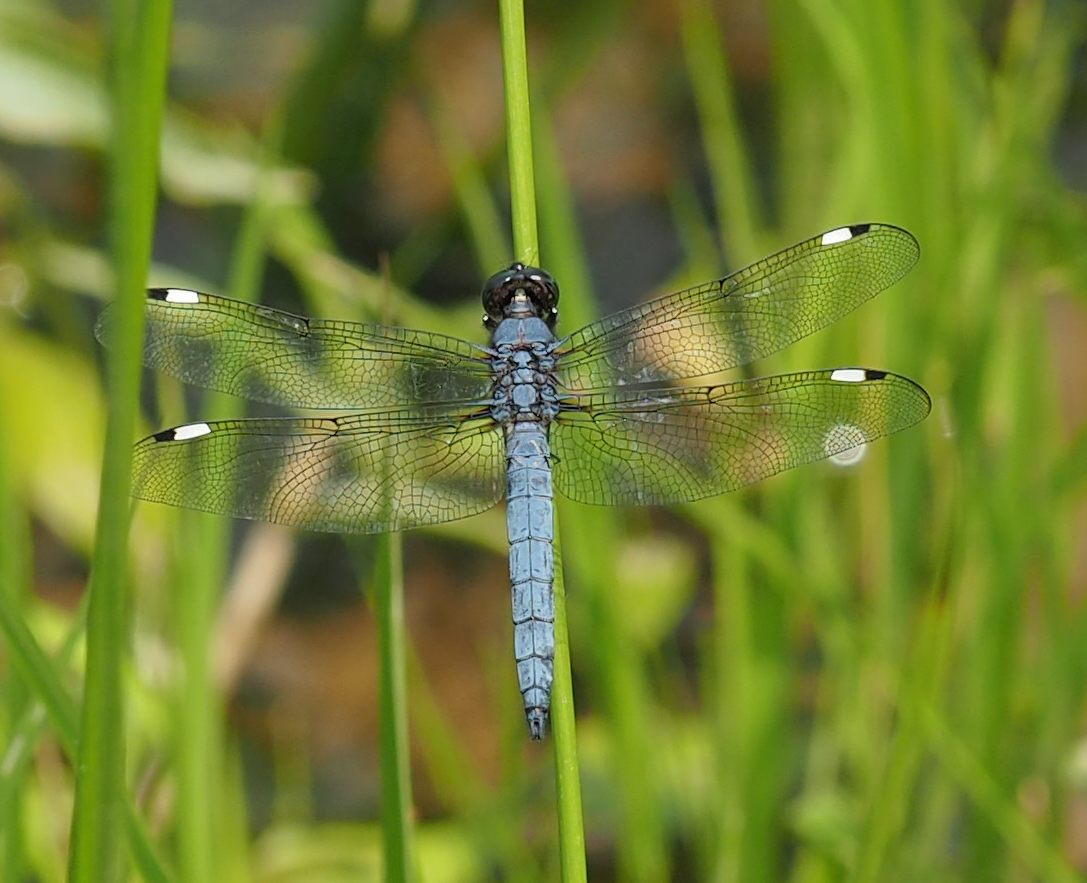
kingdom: Animalia
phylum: Arthropoda
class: Insecta
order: Odonata
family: Libellulidae
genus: Libellula
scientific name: Libellula cyanea
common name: Spangled skimmer
